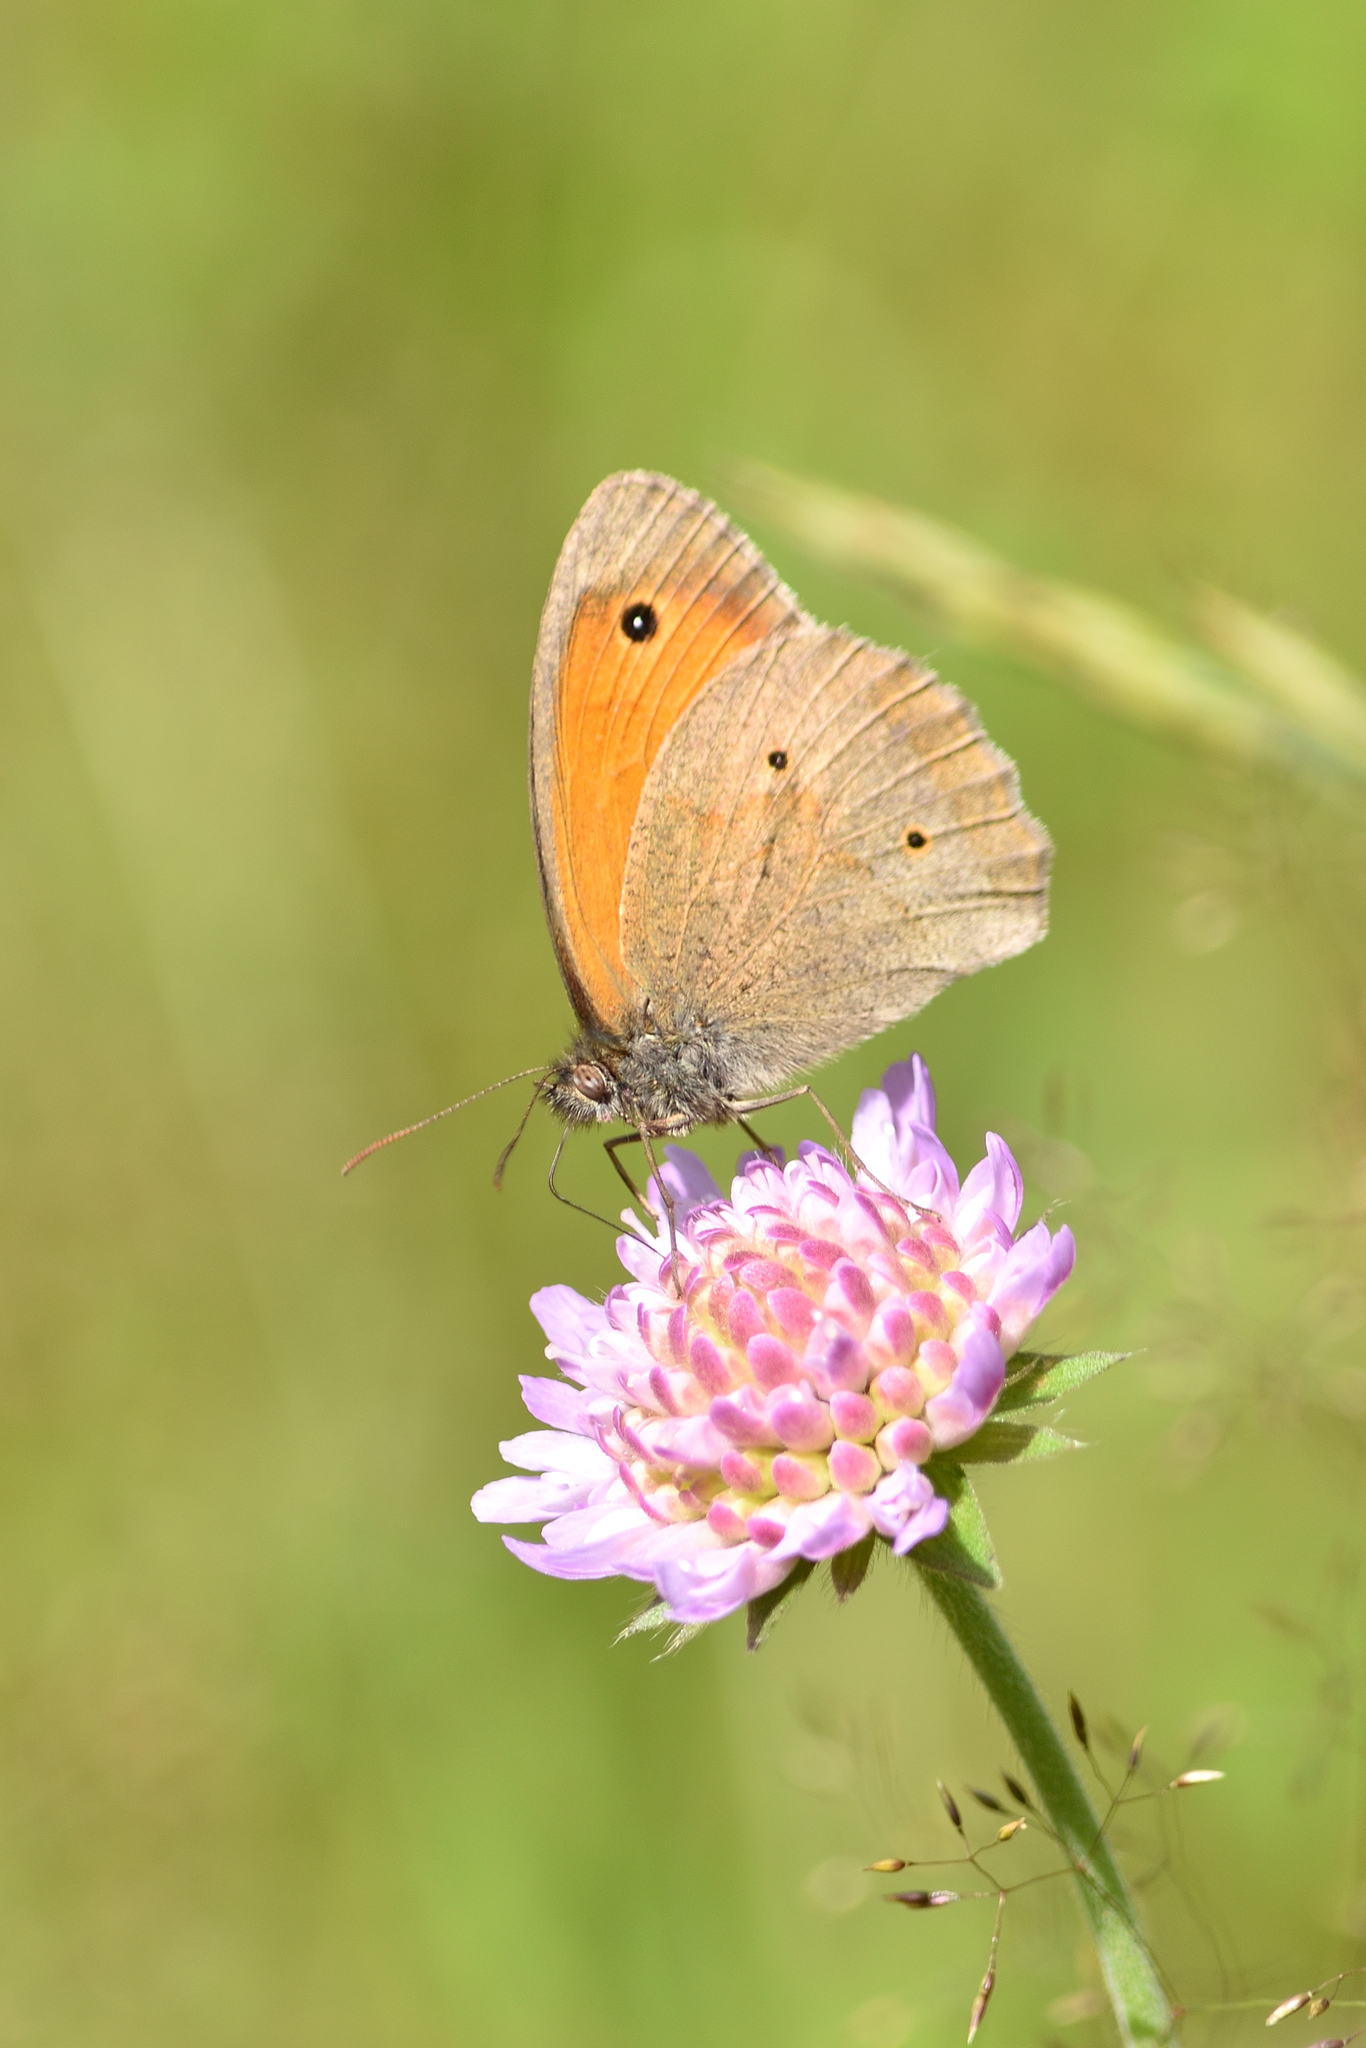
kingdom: Animalia
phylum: Arthropoda
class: Insecta
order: Lepidoptera
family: Nymphalidae
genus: Maniola
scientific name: Maniola jurtina
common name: Meadow brown
